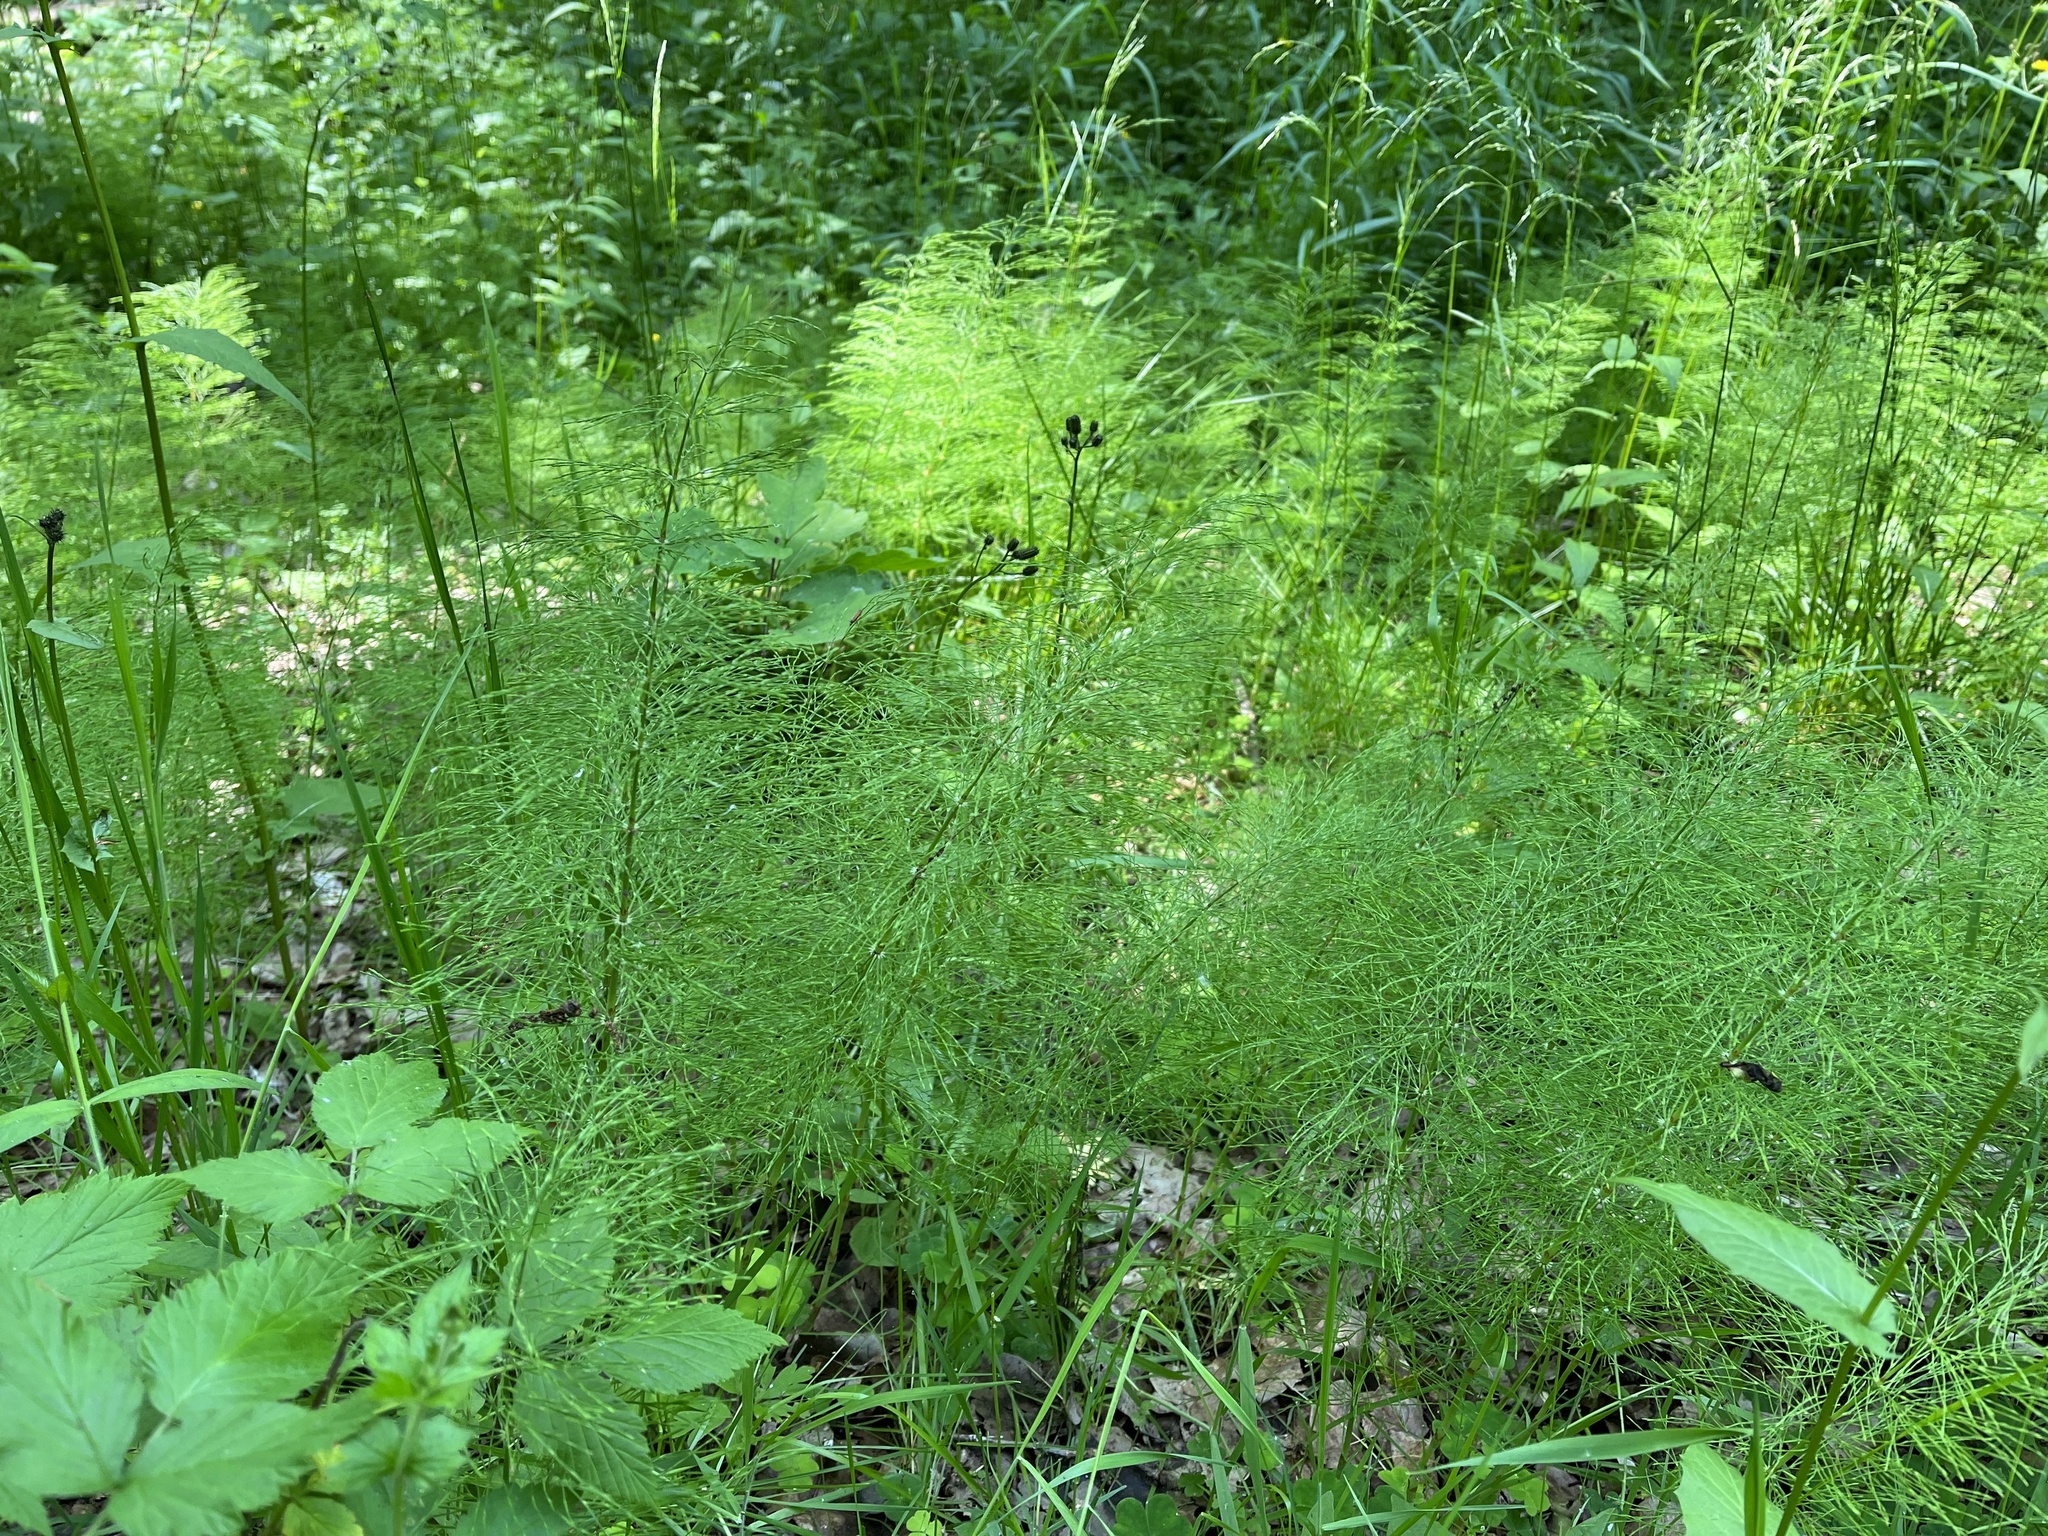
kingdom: Plantae
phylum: Tracheophyta
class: Polypodiopsida
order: Equisetales
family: Equisetaceae
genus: Equisetum
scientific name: Equisetum sylvaticum
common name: Wood horsetail
